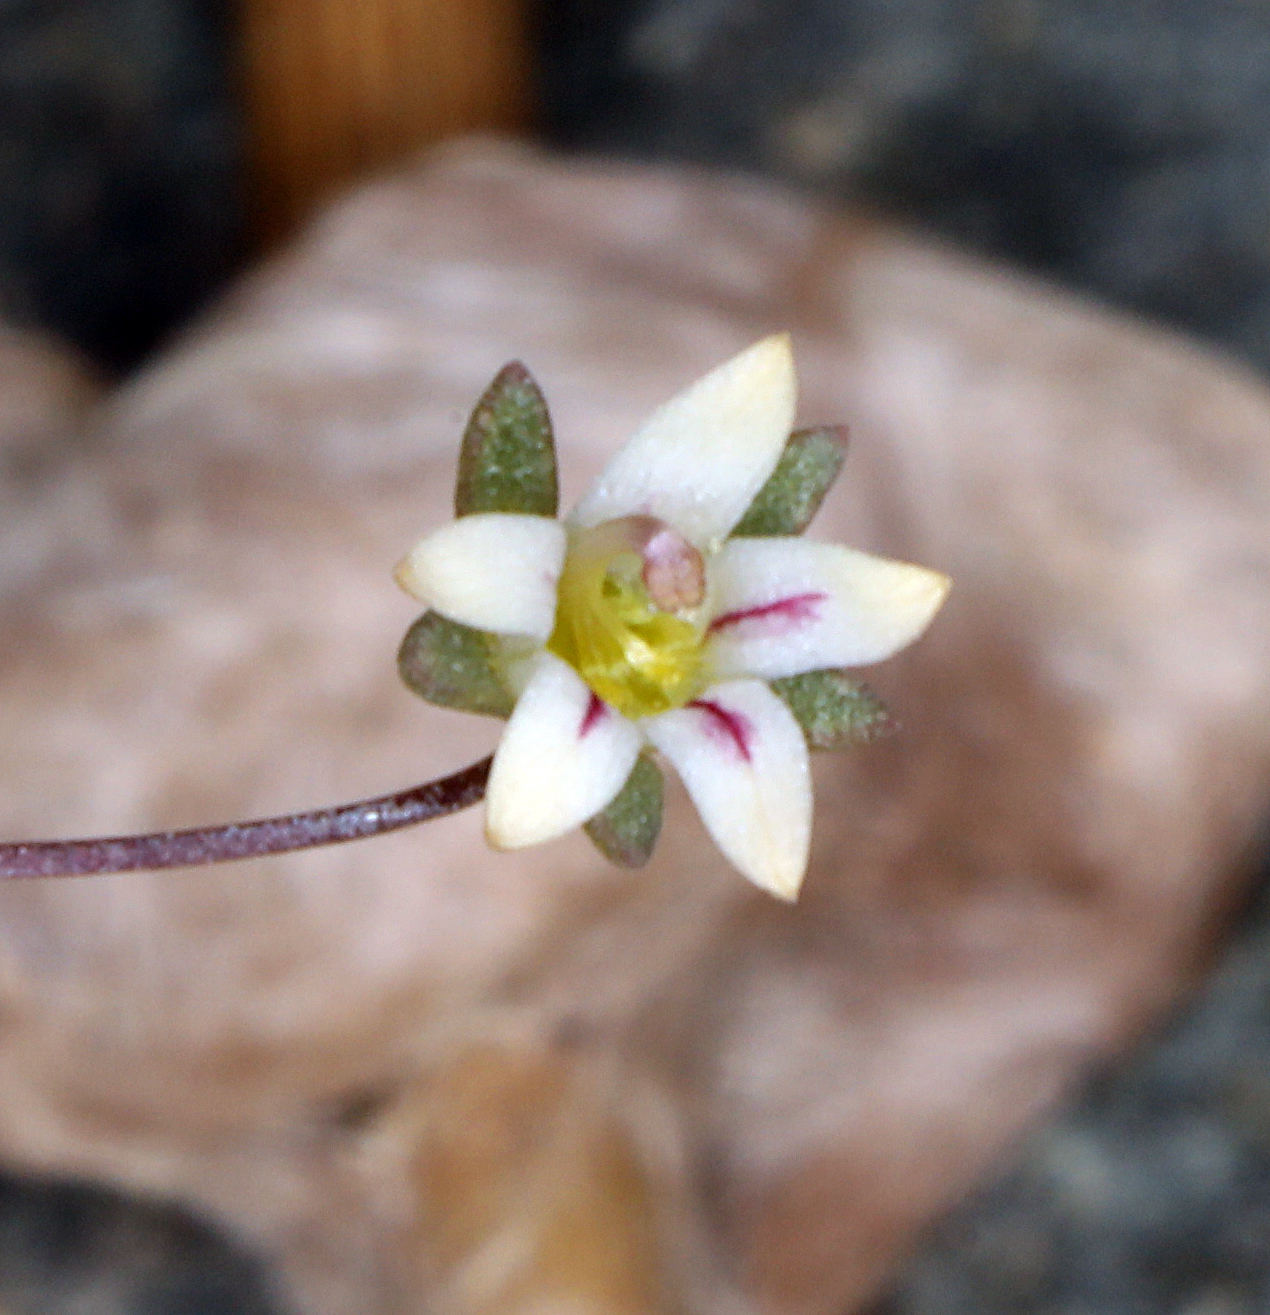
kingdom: Plantae
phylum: Tracheophyta
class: Magnoliopsida
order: Asterales
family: Campanulaceae
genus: Nemacladus
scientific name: Nemacladus inyoensis
